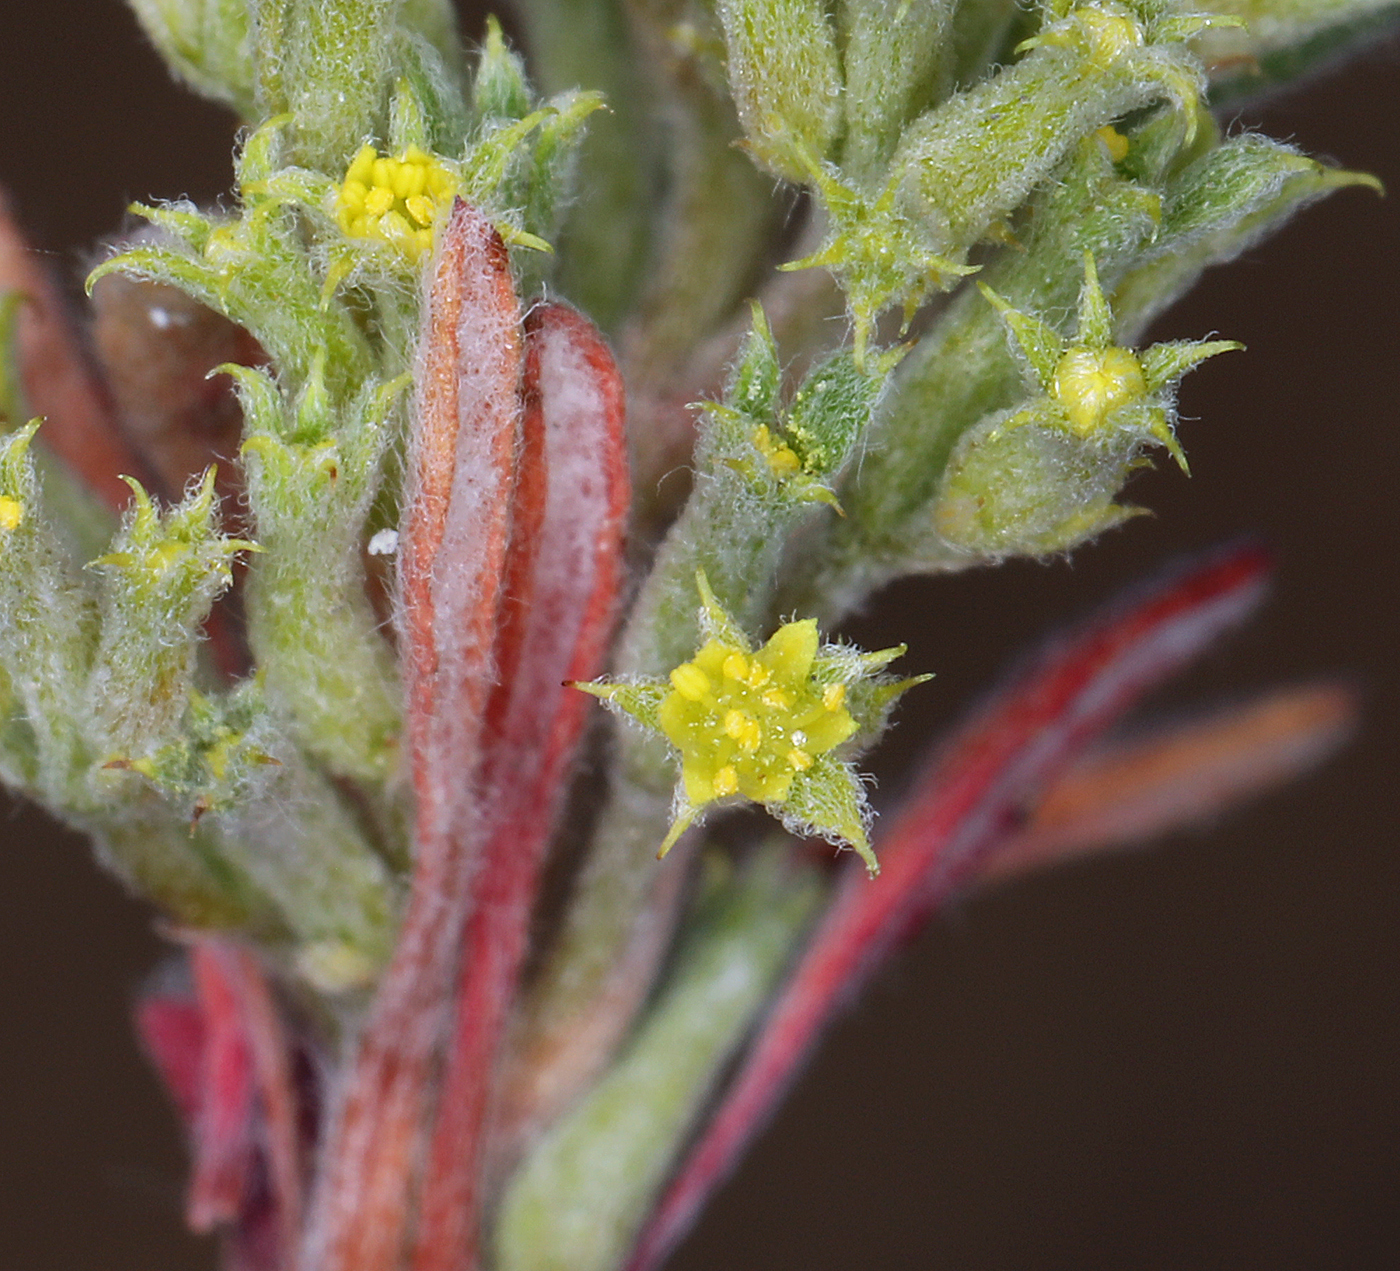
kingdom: Plantae
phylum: Tracheophyta
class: Magnoliopsida
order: Caryophyllales
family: Polygonaceae
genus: Chorizanthe
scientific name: Chorizanthe watsonii
